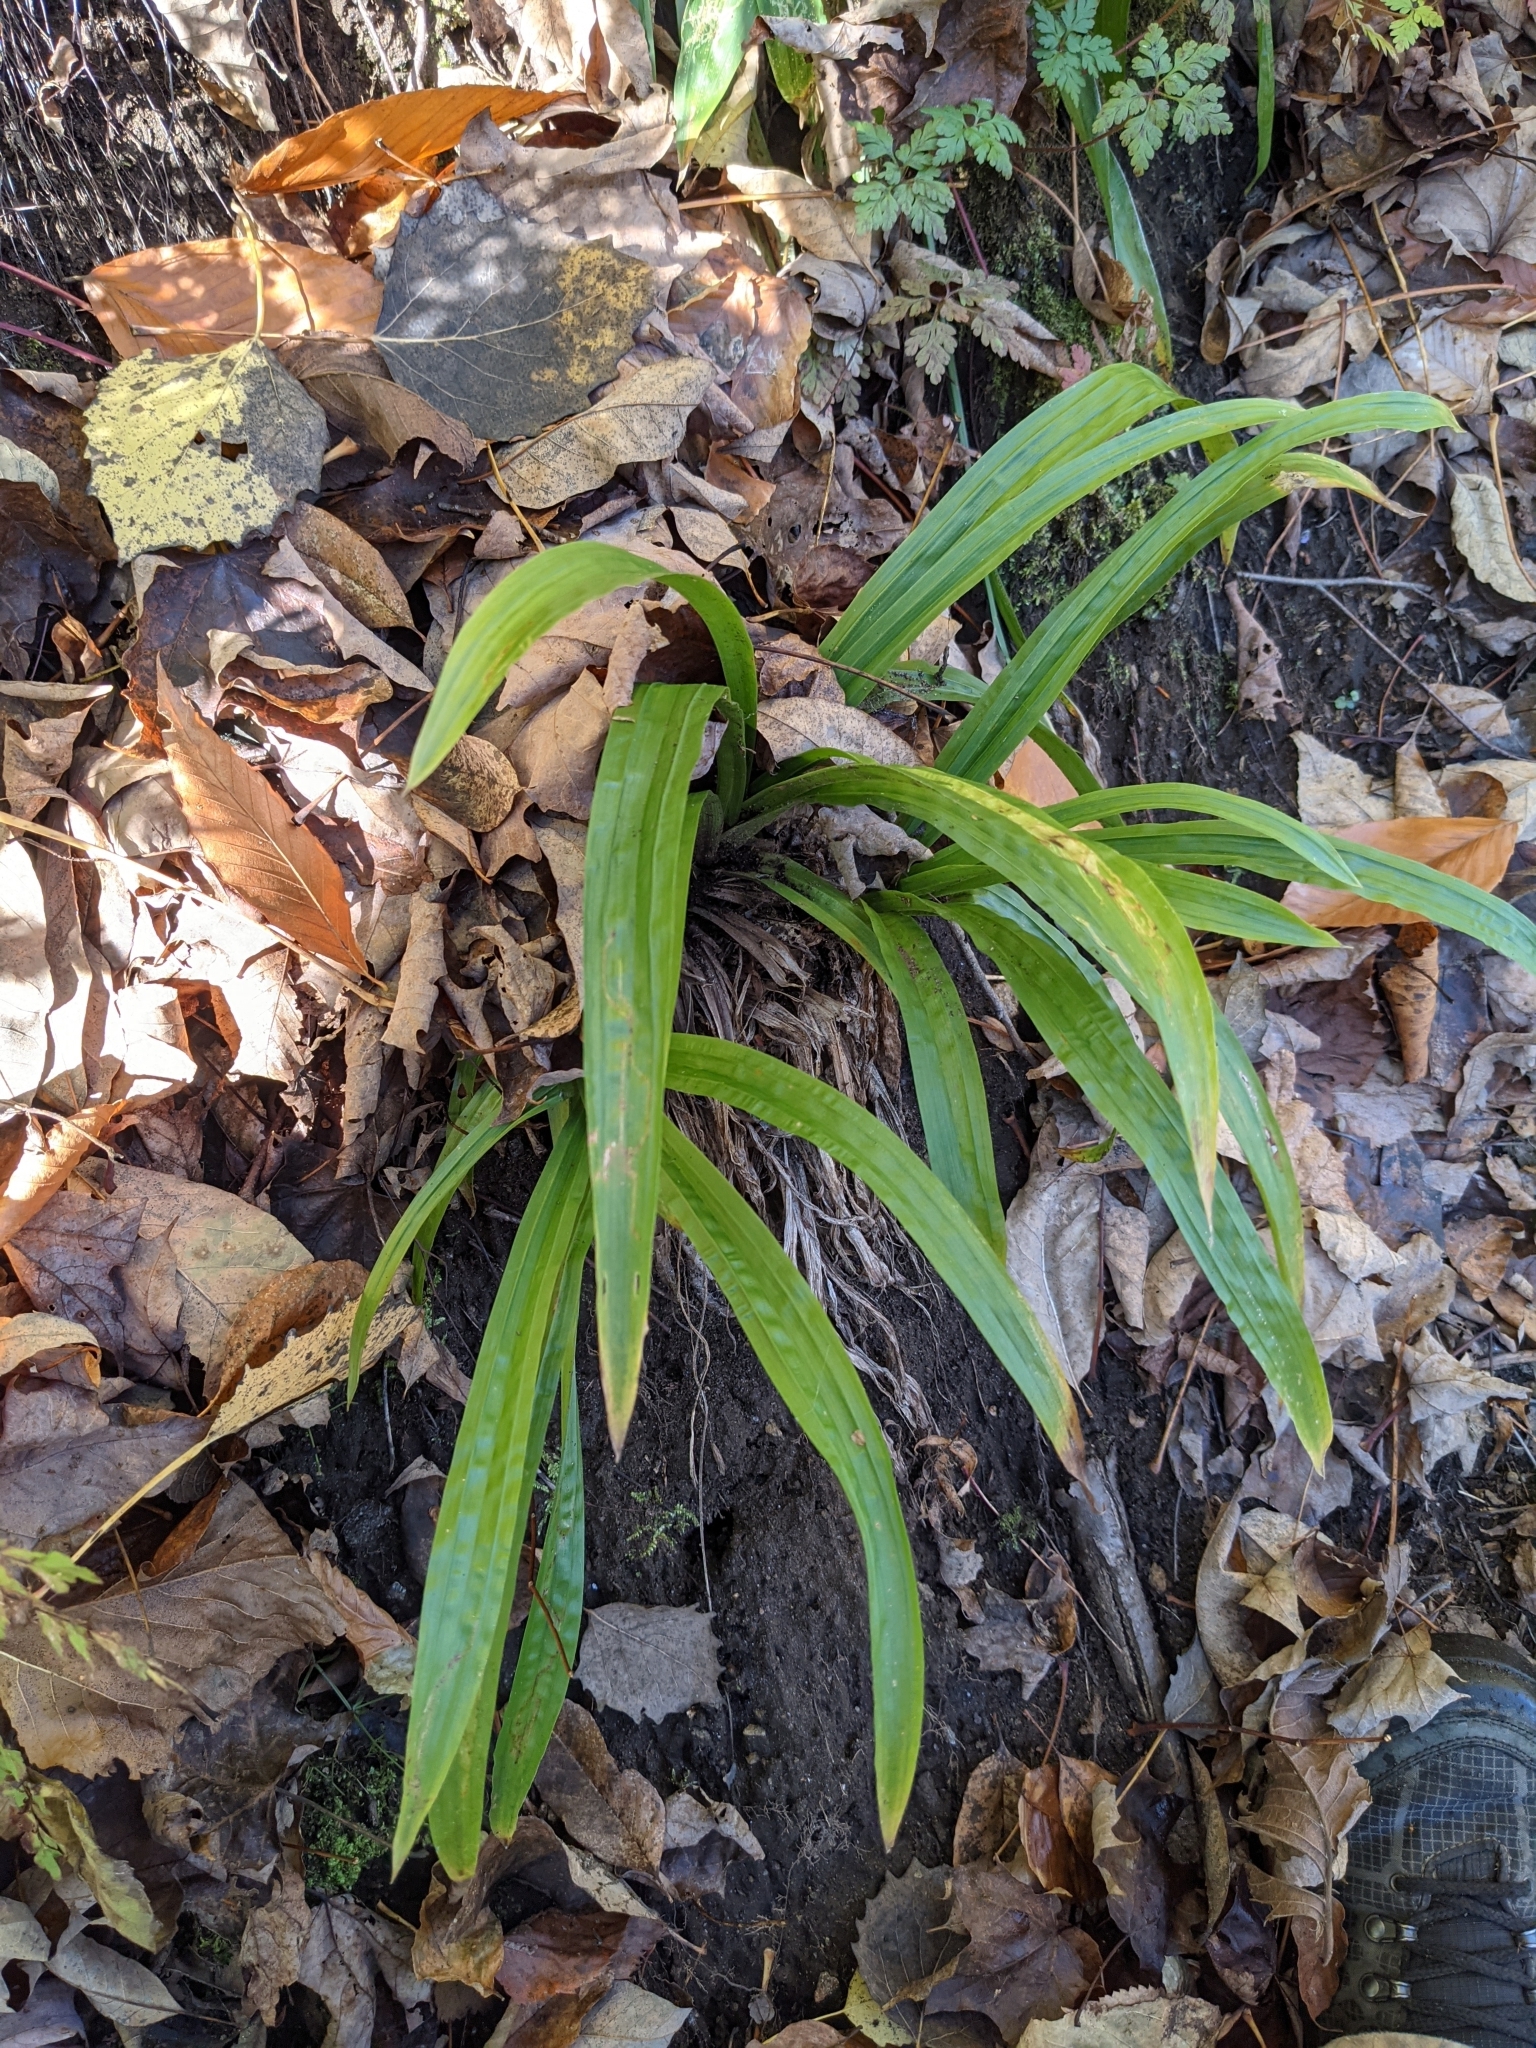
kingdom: Plantae
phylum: Tracheophyta
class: Liliopsida
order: Poales
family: Cyperaceae
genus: Carex
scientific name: Carex plantaginea
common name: Plantain-leaved sedge
